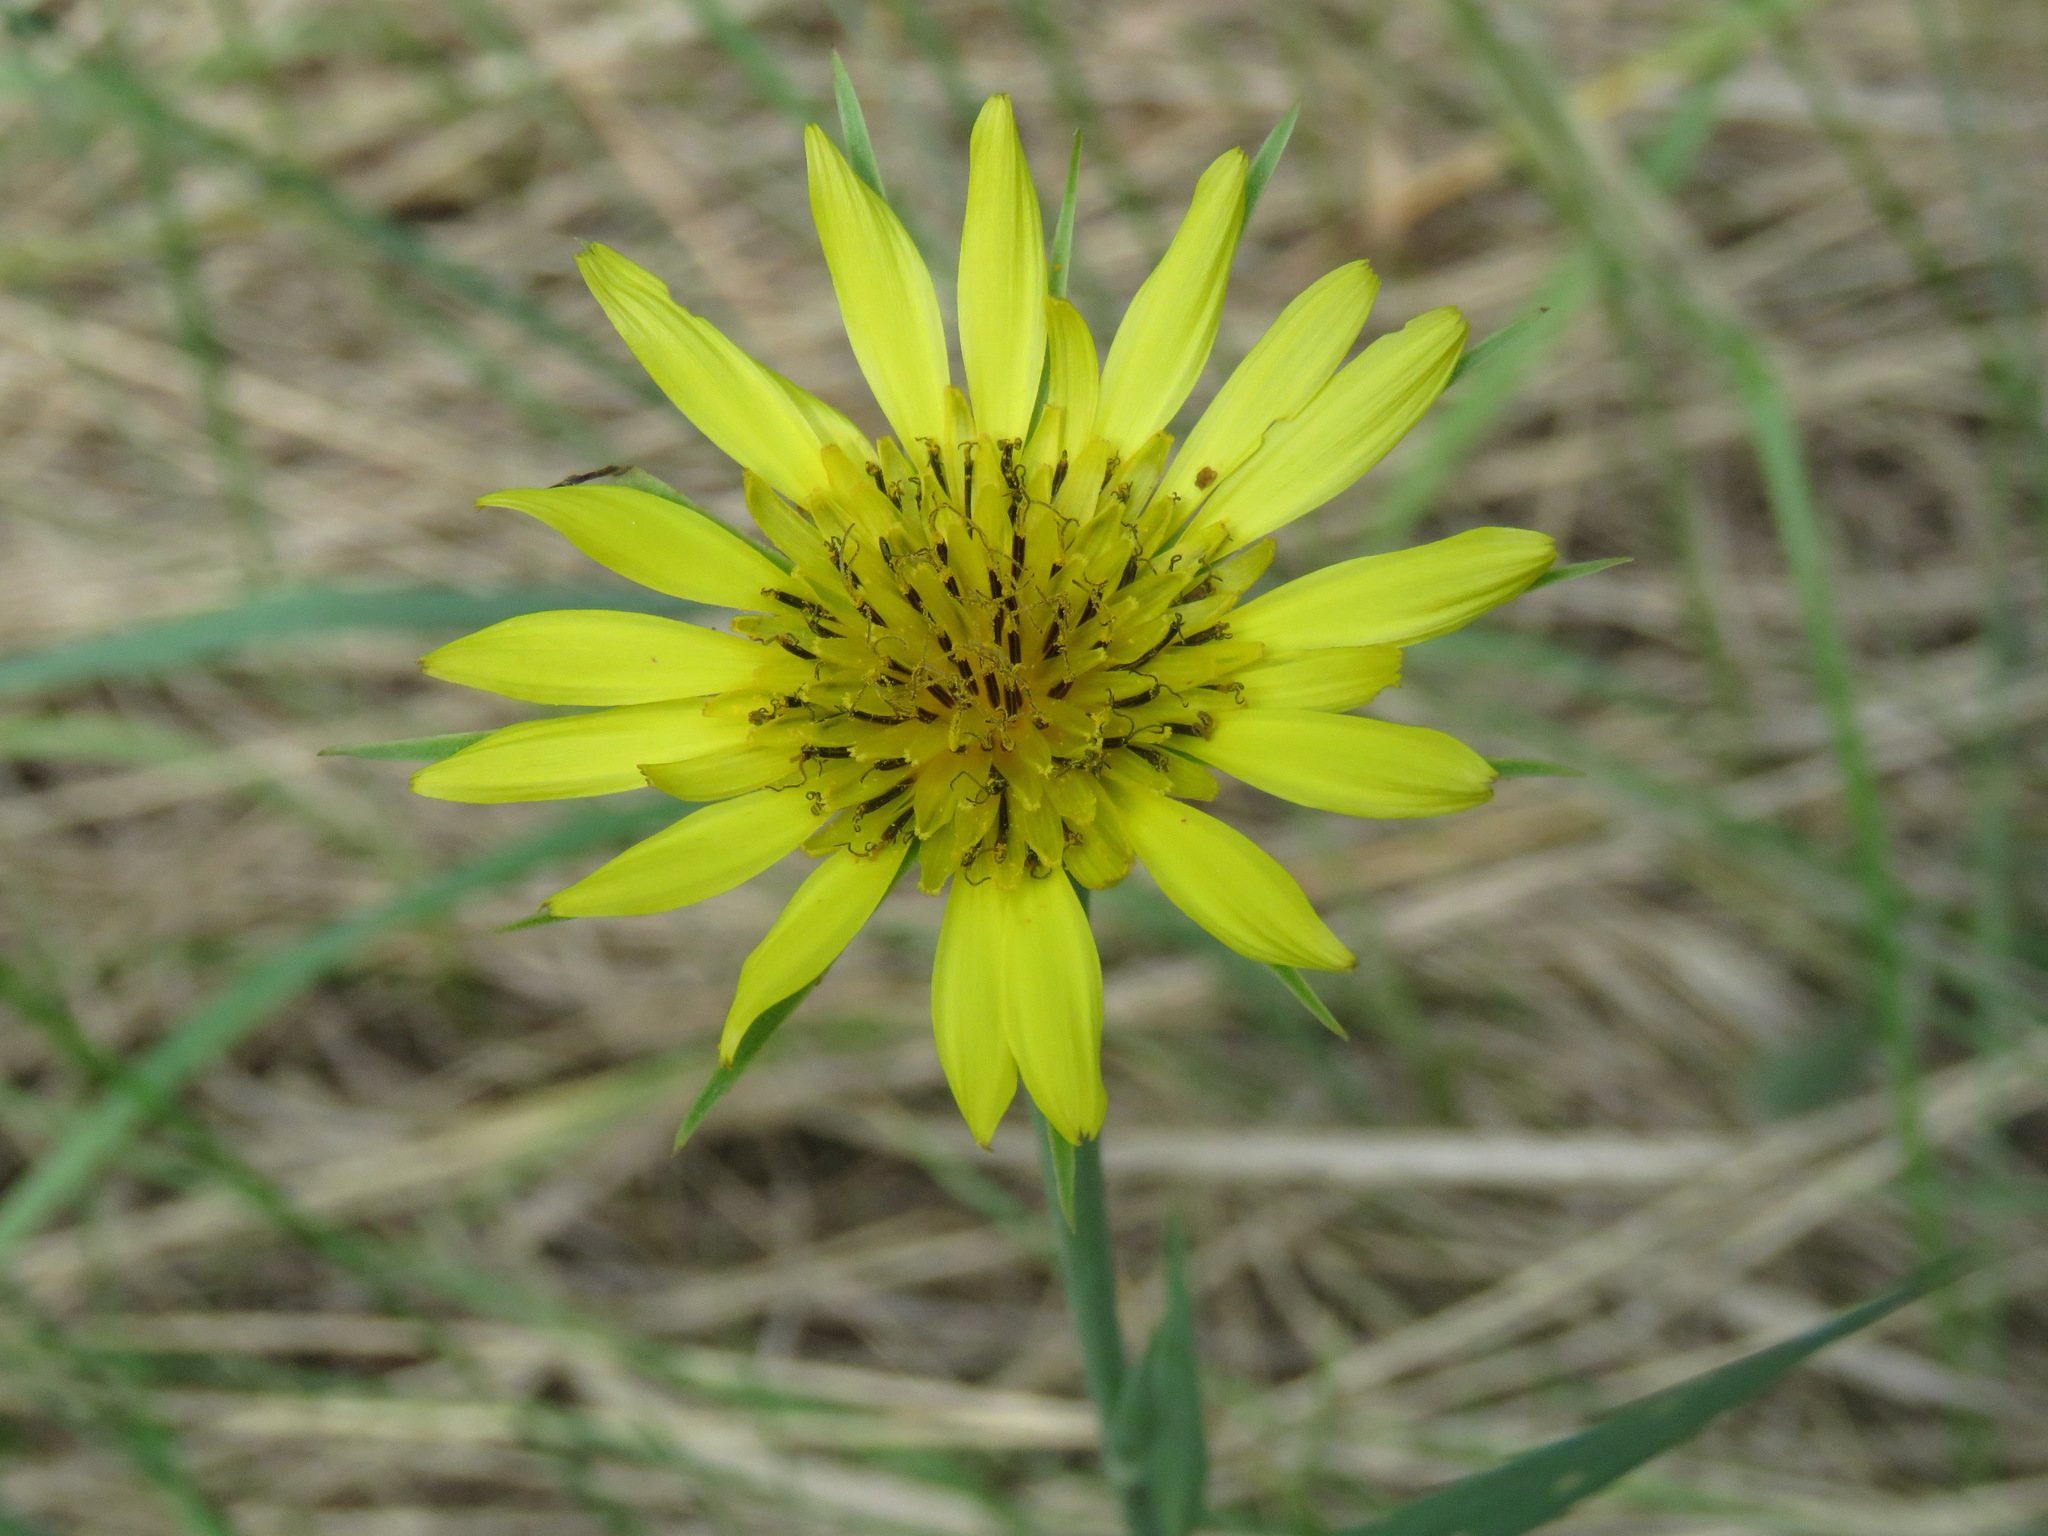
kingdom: Plantae
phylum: Tracheophyta
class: Magnoliopsida
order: Asterales
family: Asteraceae
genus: Tragopogon
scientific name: Tragopogon dubius
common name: Yellow salsify
